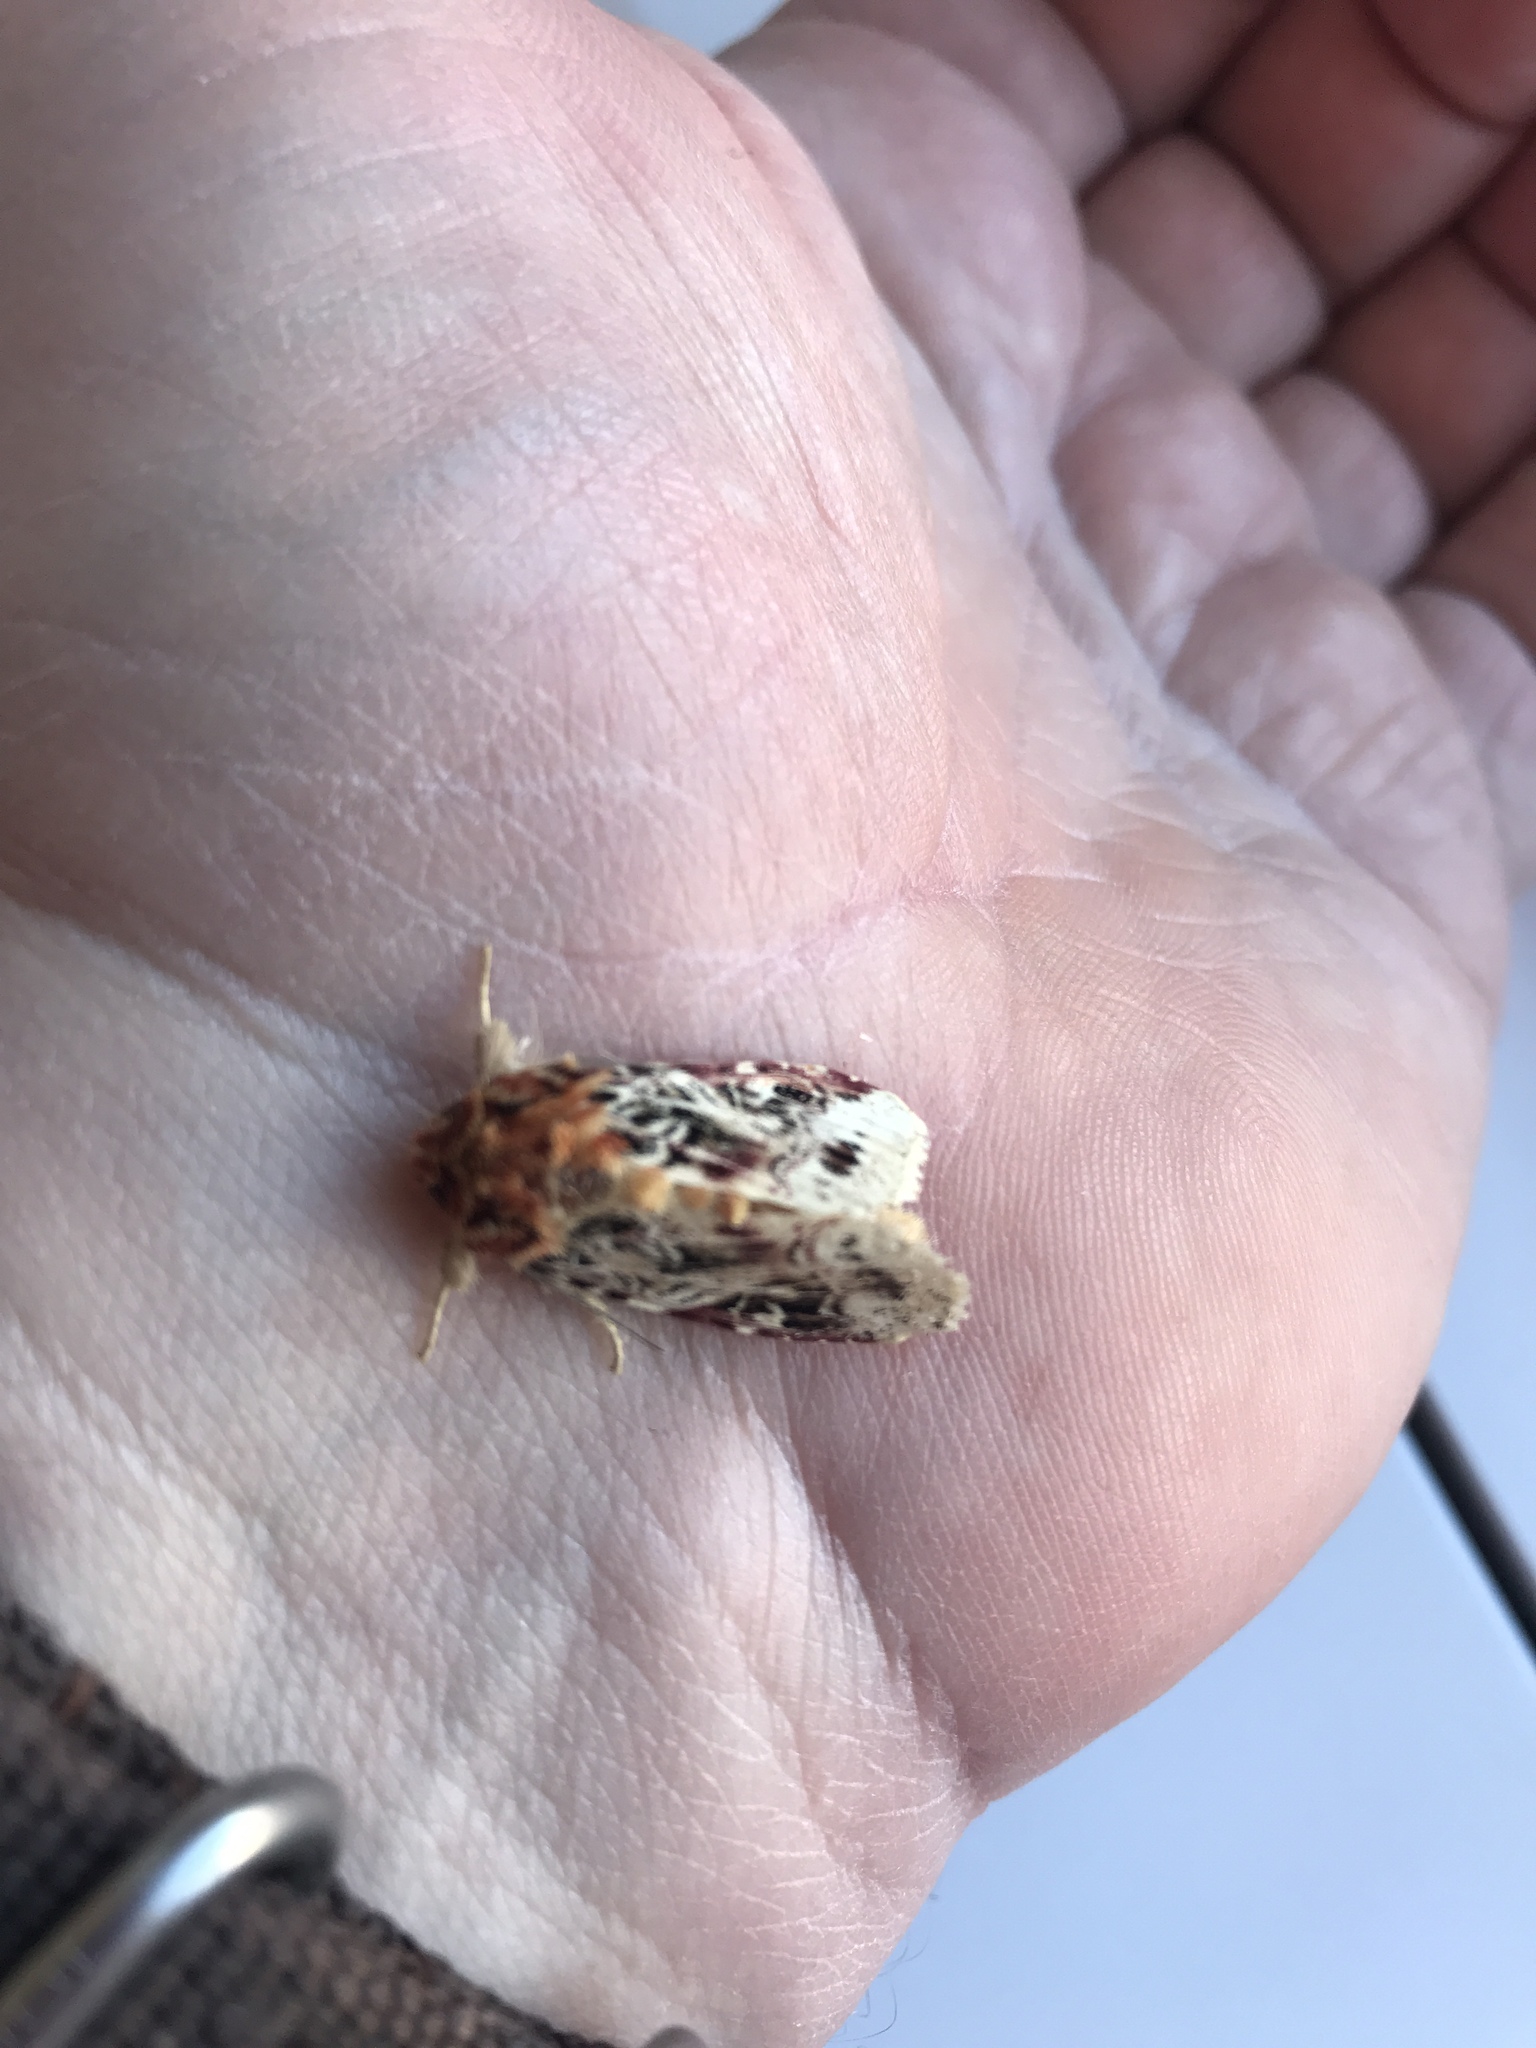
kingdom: Animalia
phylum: Arthropoda
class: Insecta
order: Lepidoptera
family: Noctuidae
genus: Spodoptera
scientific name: Spodoptera picta
